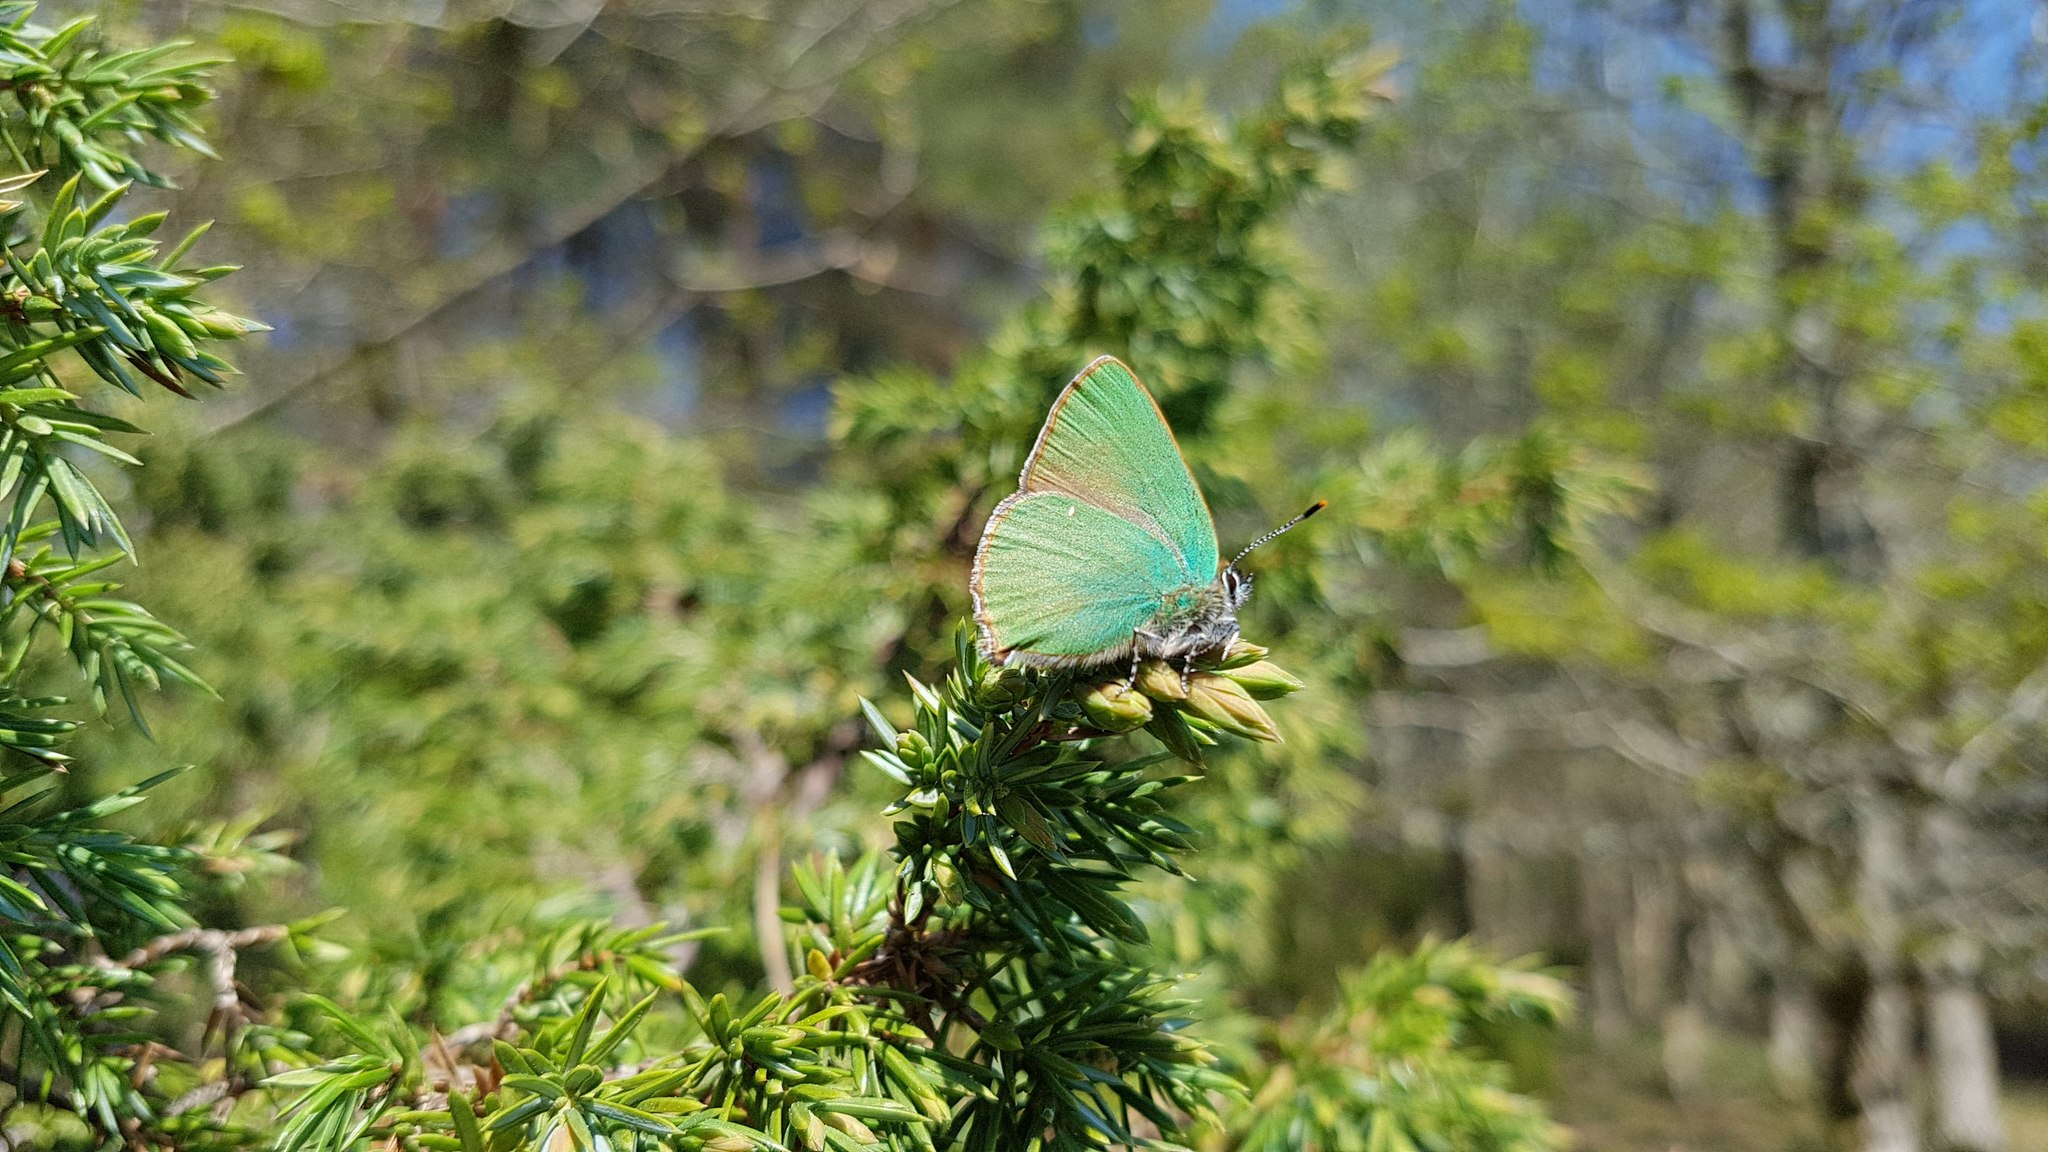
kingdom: Animalia
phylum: Arthropoda
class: Insecta
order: Lepidoptera
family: Lycaenidae
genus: Callophrys
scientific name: Callophrys rubi
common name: Green hairstreak
